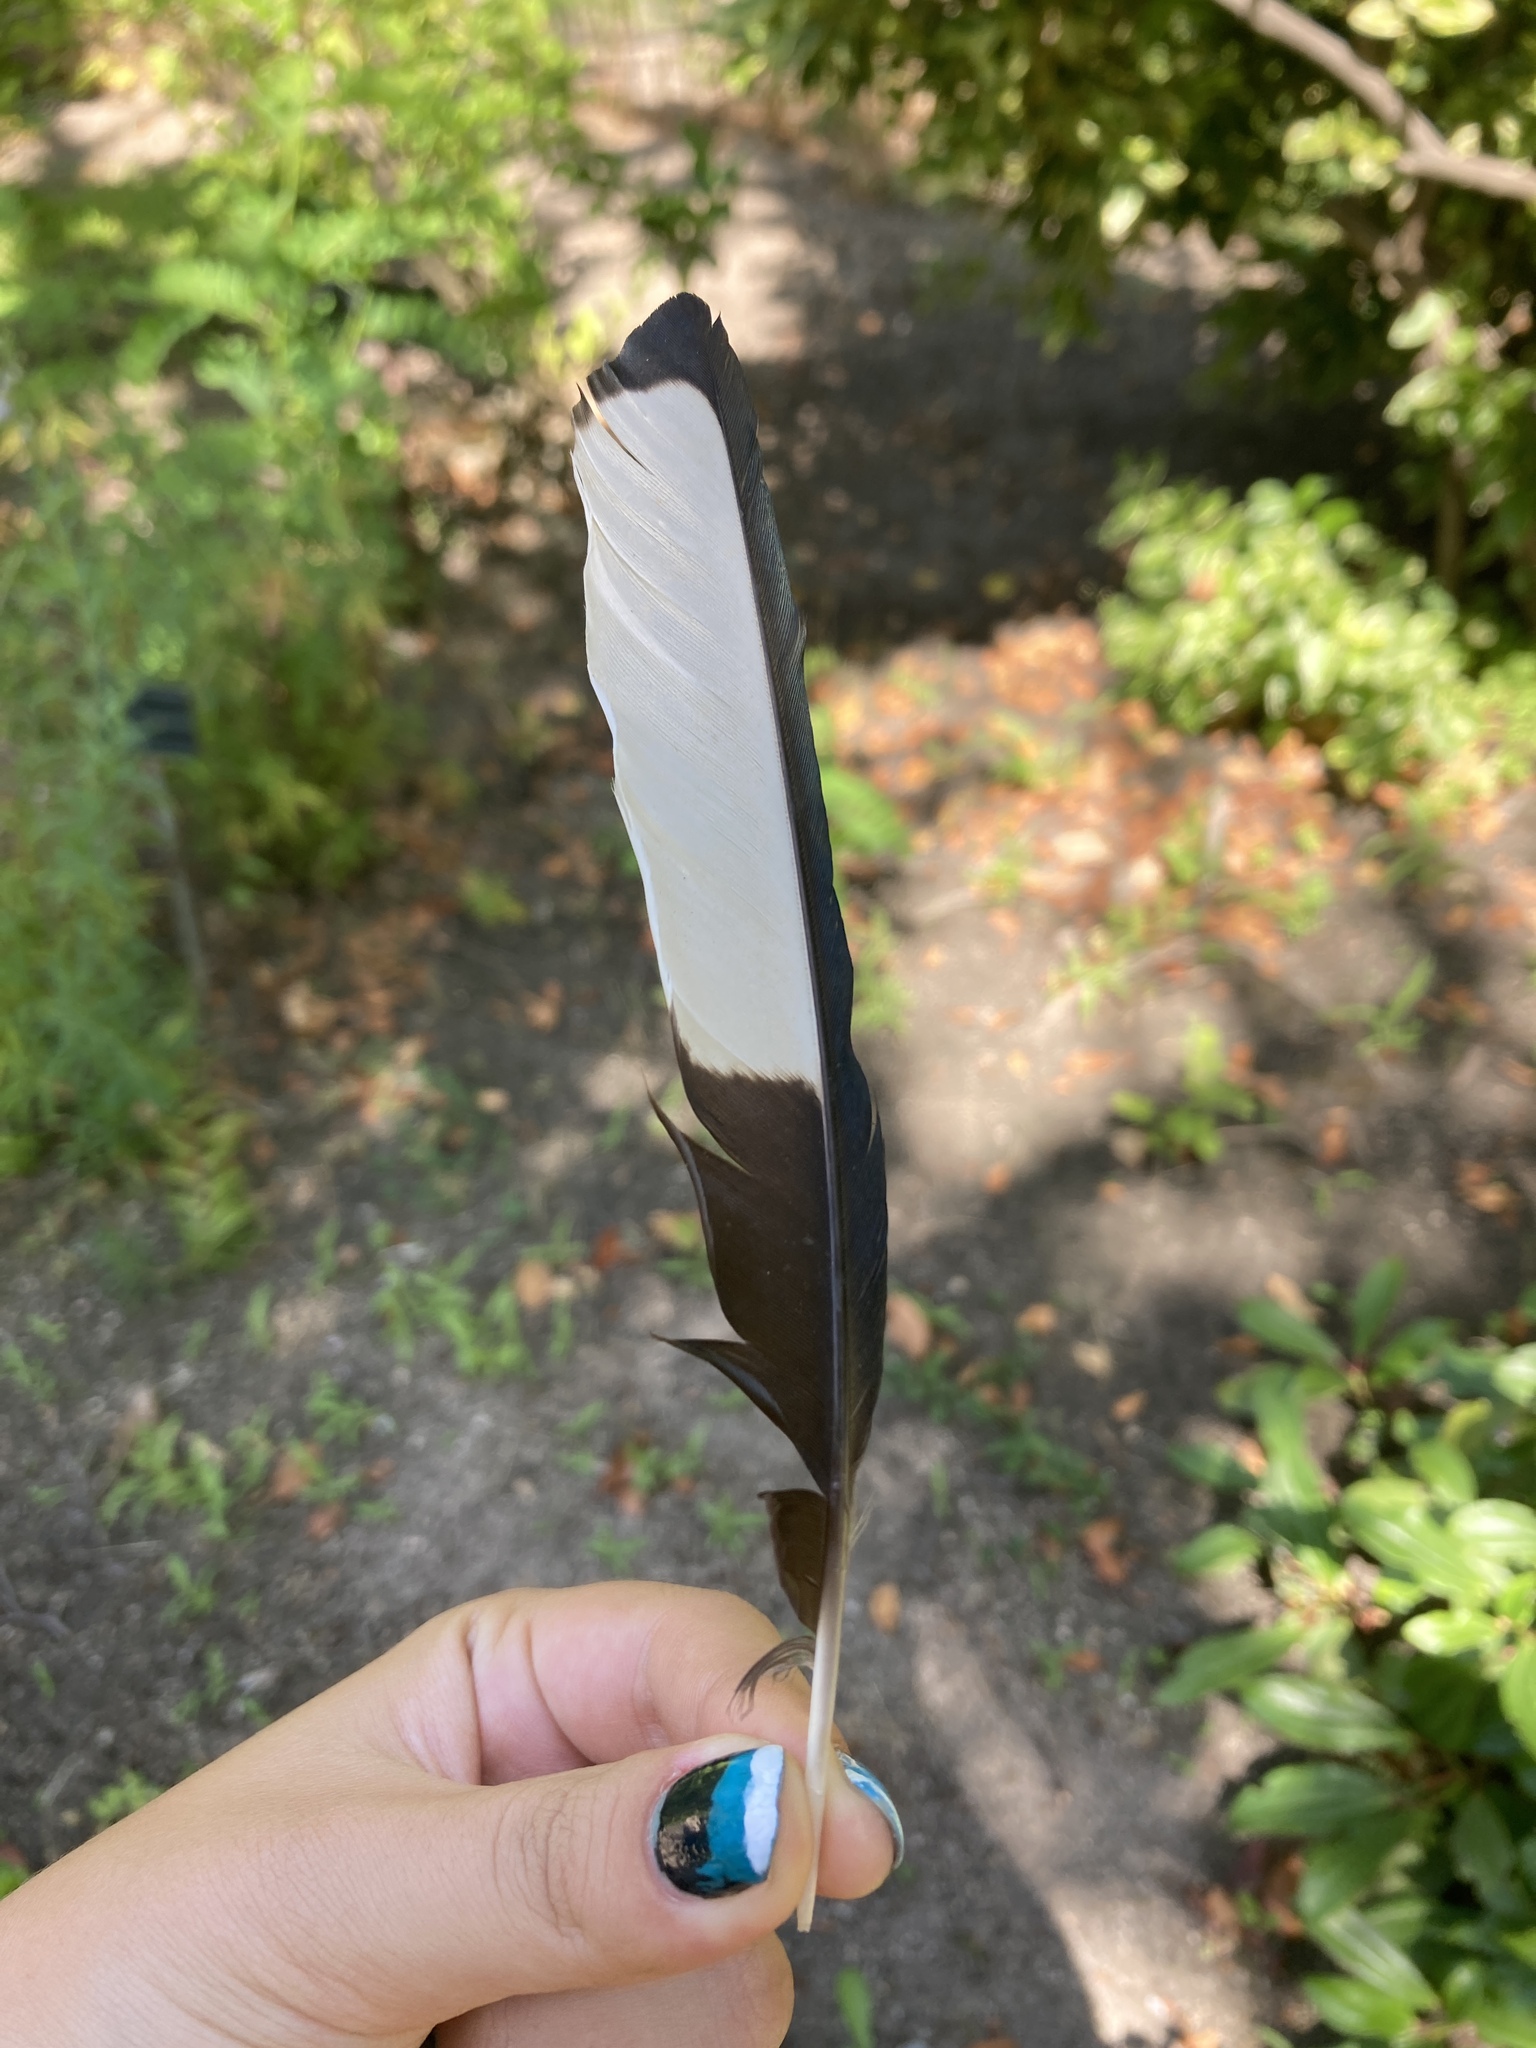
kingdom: Animalia
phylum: Chordata
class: Aves
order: Passeriformes
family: Corvidae
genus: Pica
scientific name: Pica pica
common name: Eurasian magpie
